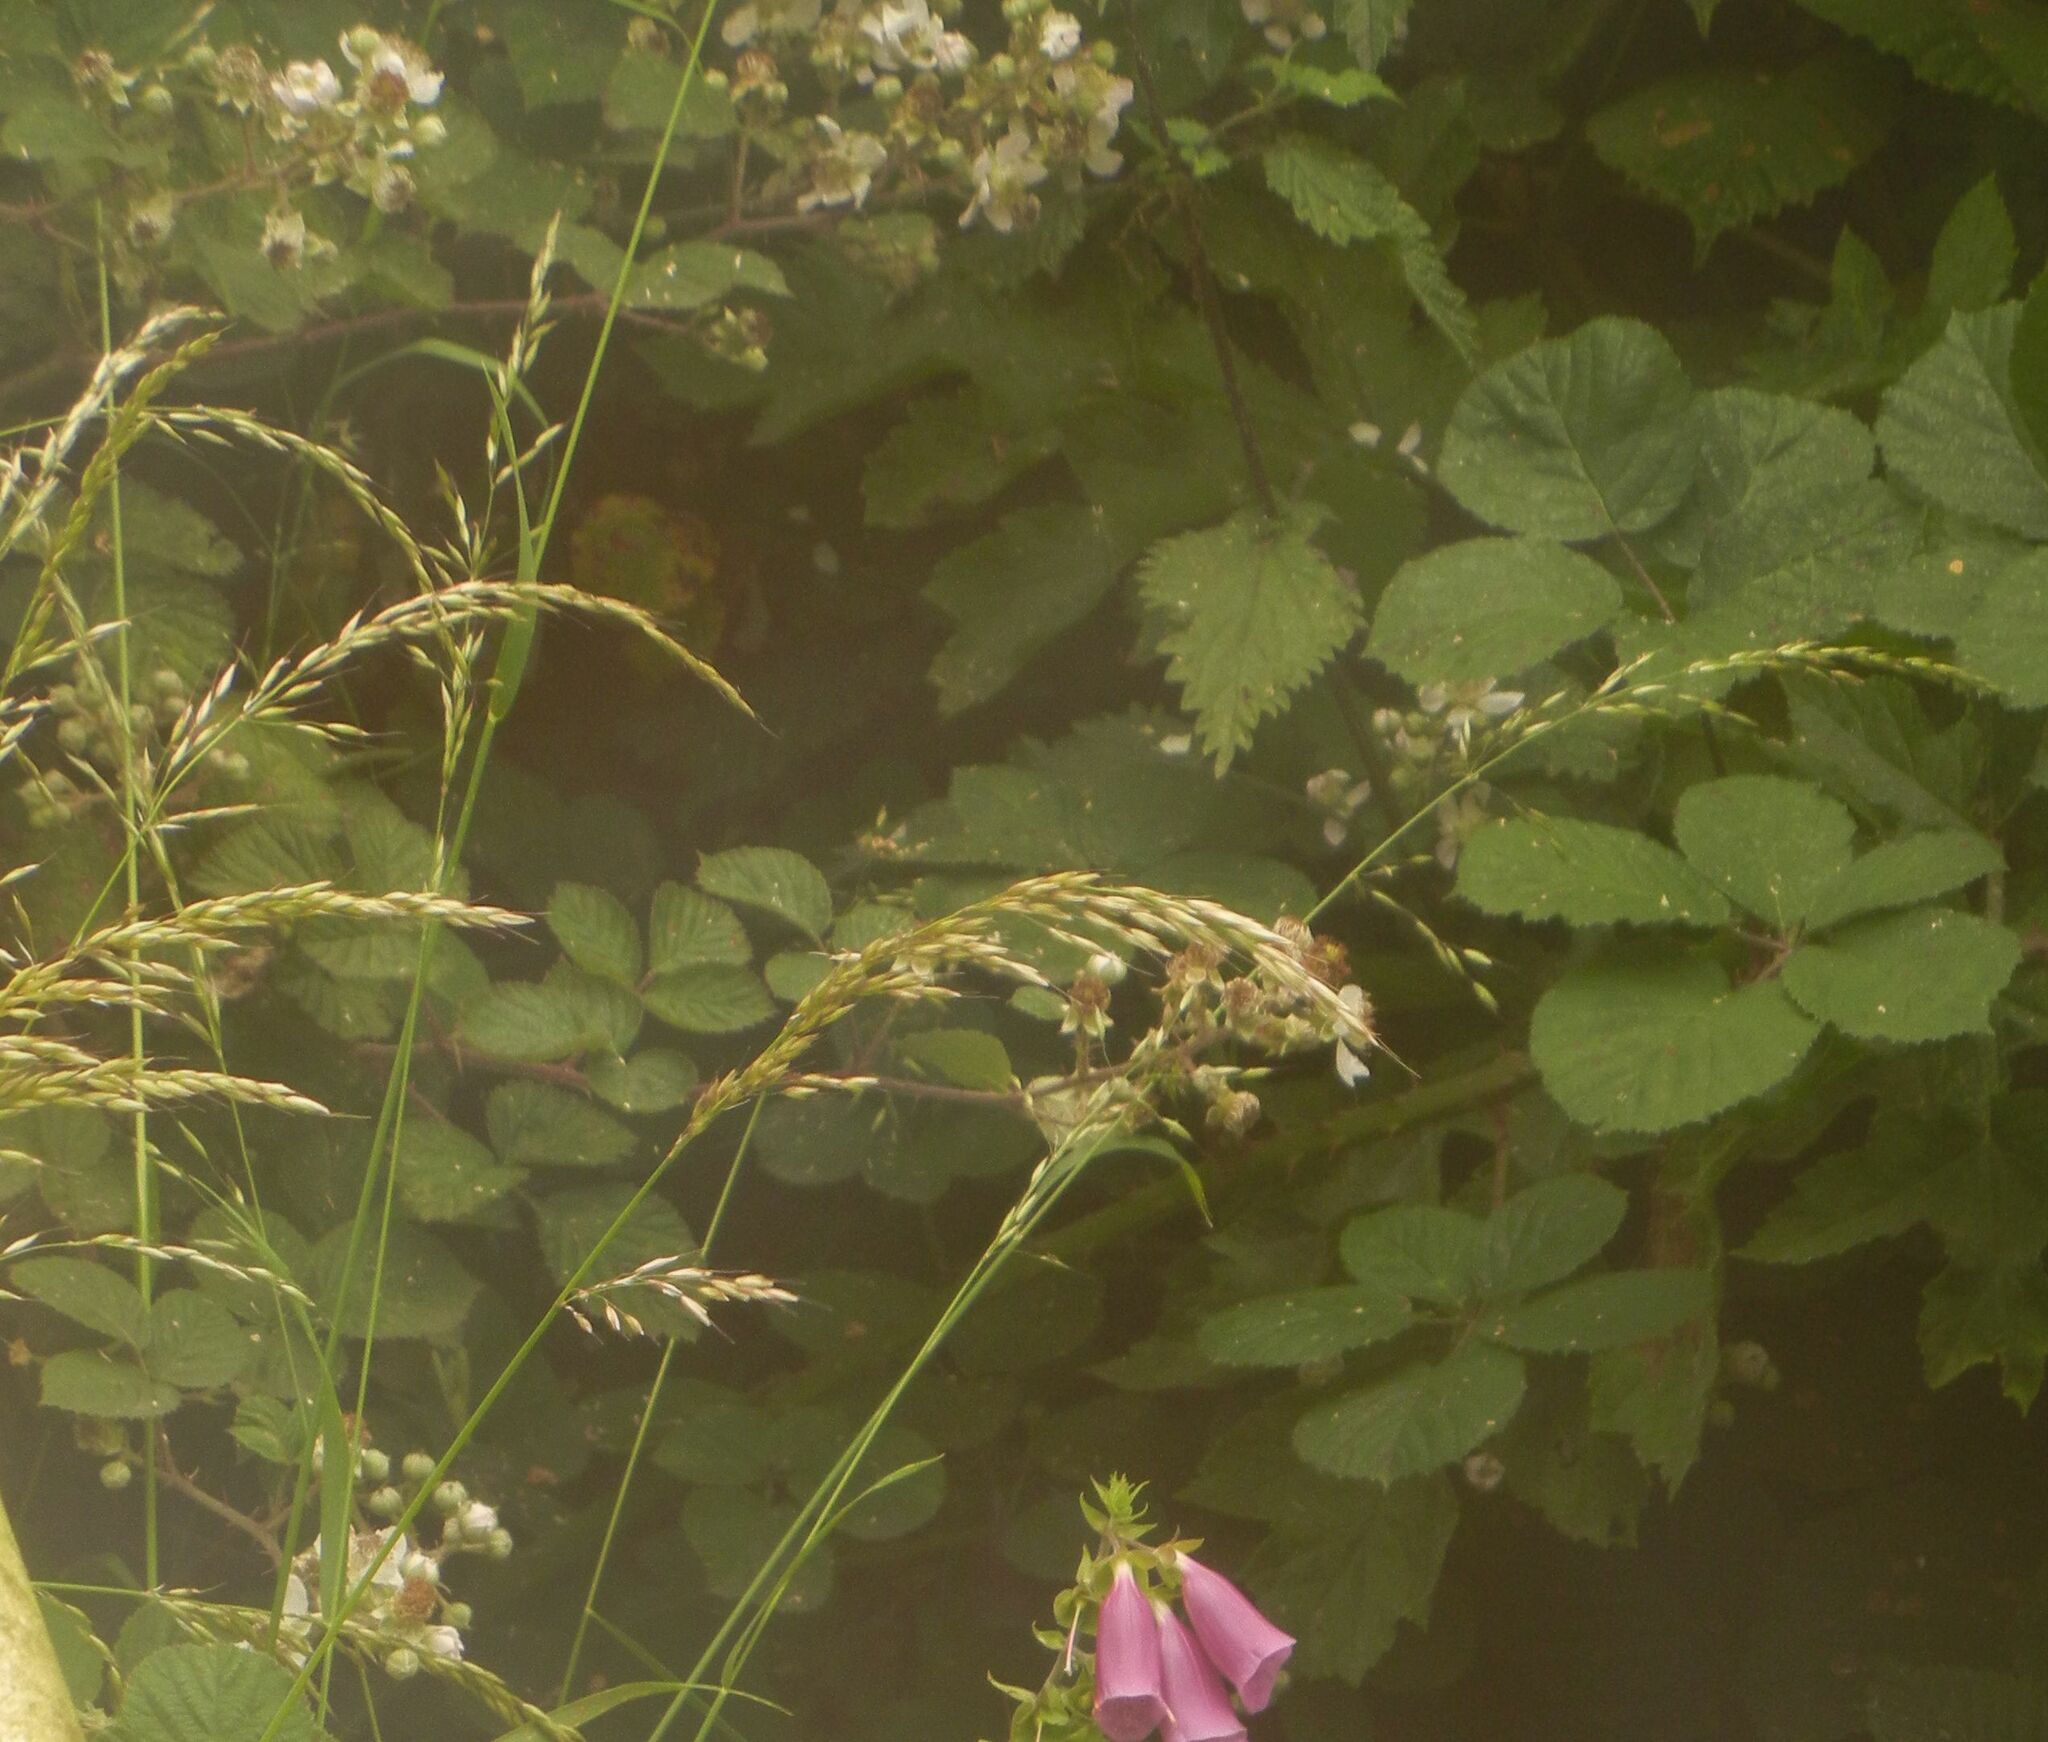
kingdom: Plantae
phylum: Tracheophyta
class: Liliopsida
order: Poales
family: Poaceae
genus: Arrhenatherum
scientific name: Arrhenatherum elatius
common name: Tall oatgrass
